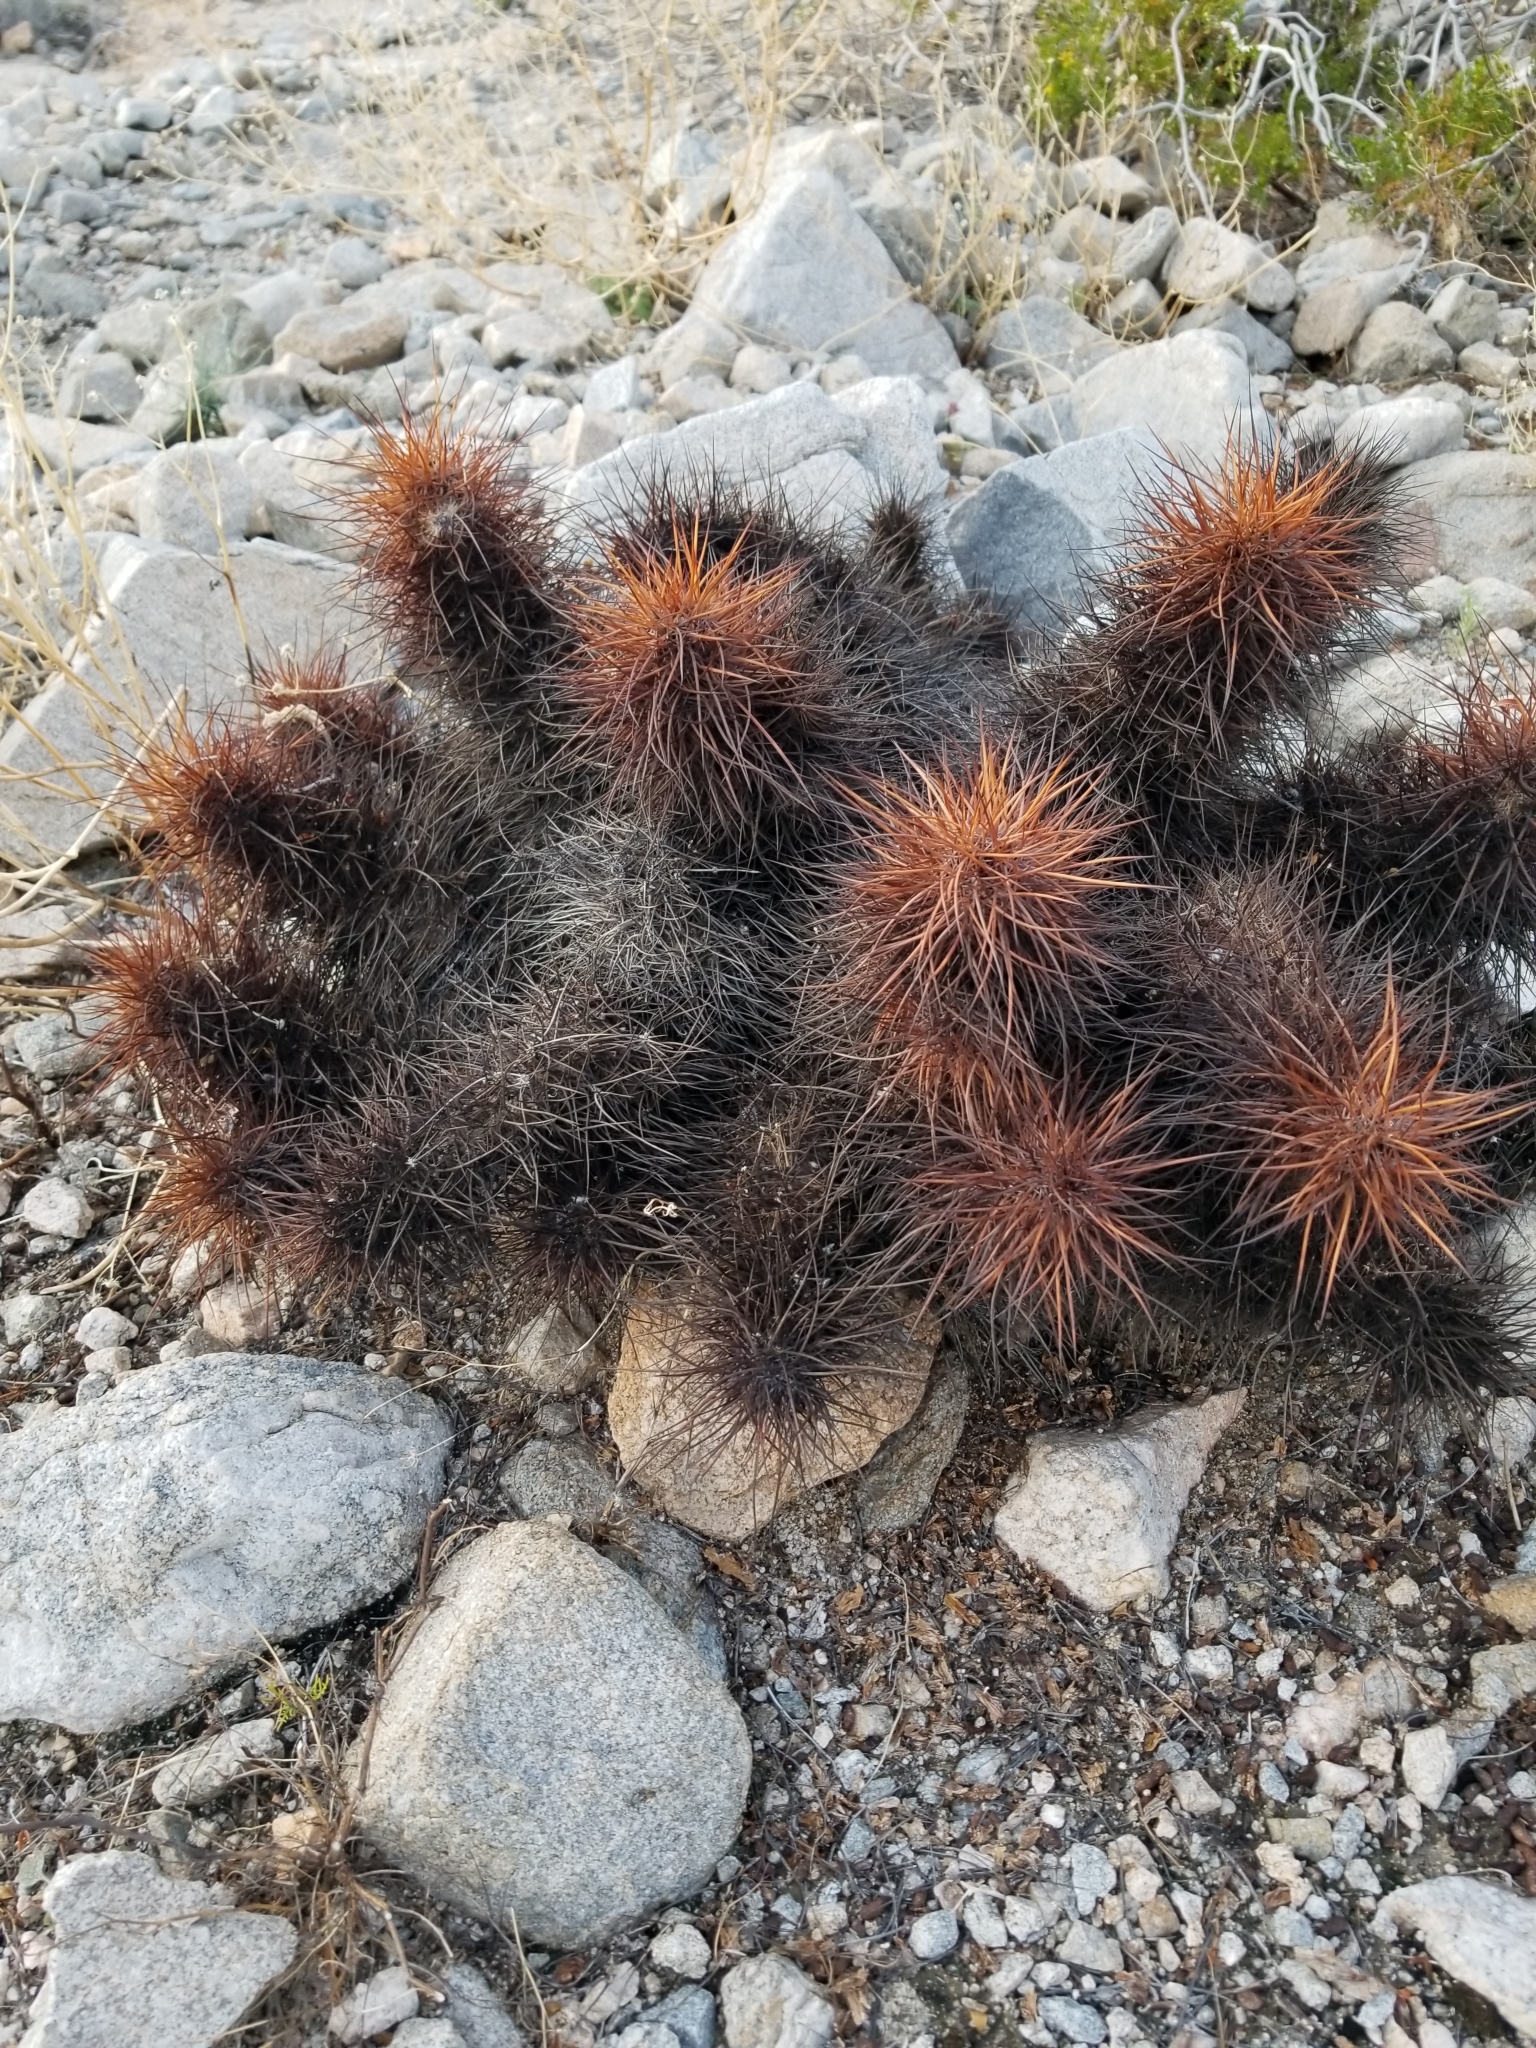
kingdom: Plantae
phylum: Tracheophyta
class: Magnoliopsida
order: Caryophyllales
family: Cactaceae
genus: Echinocereus
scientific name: Echinocereus engelmannii
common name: Engelmann's hedgehog cactus
